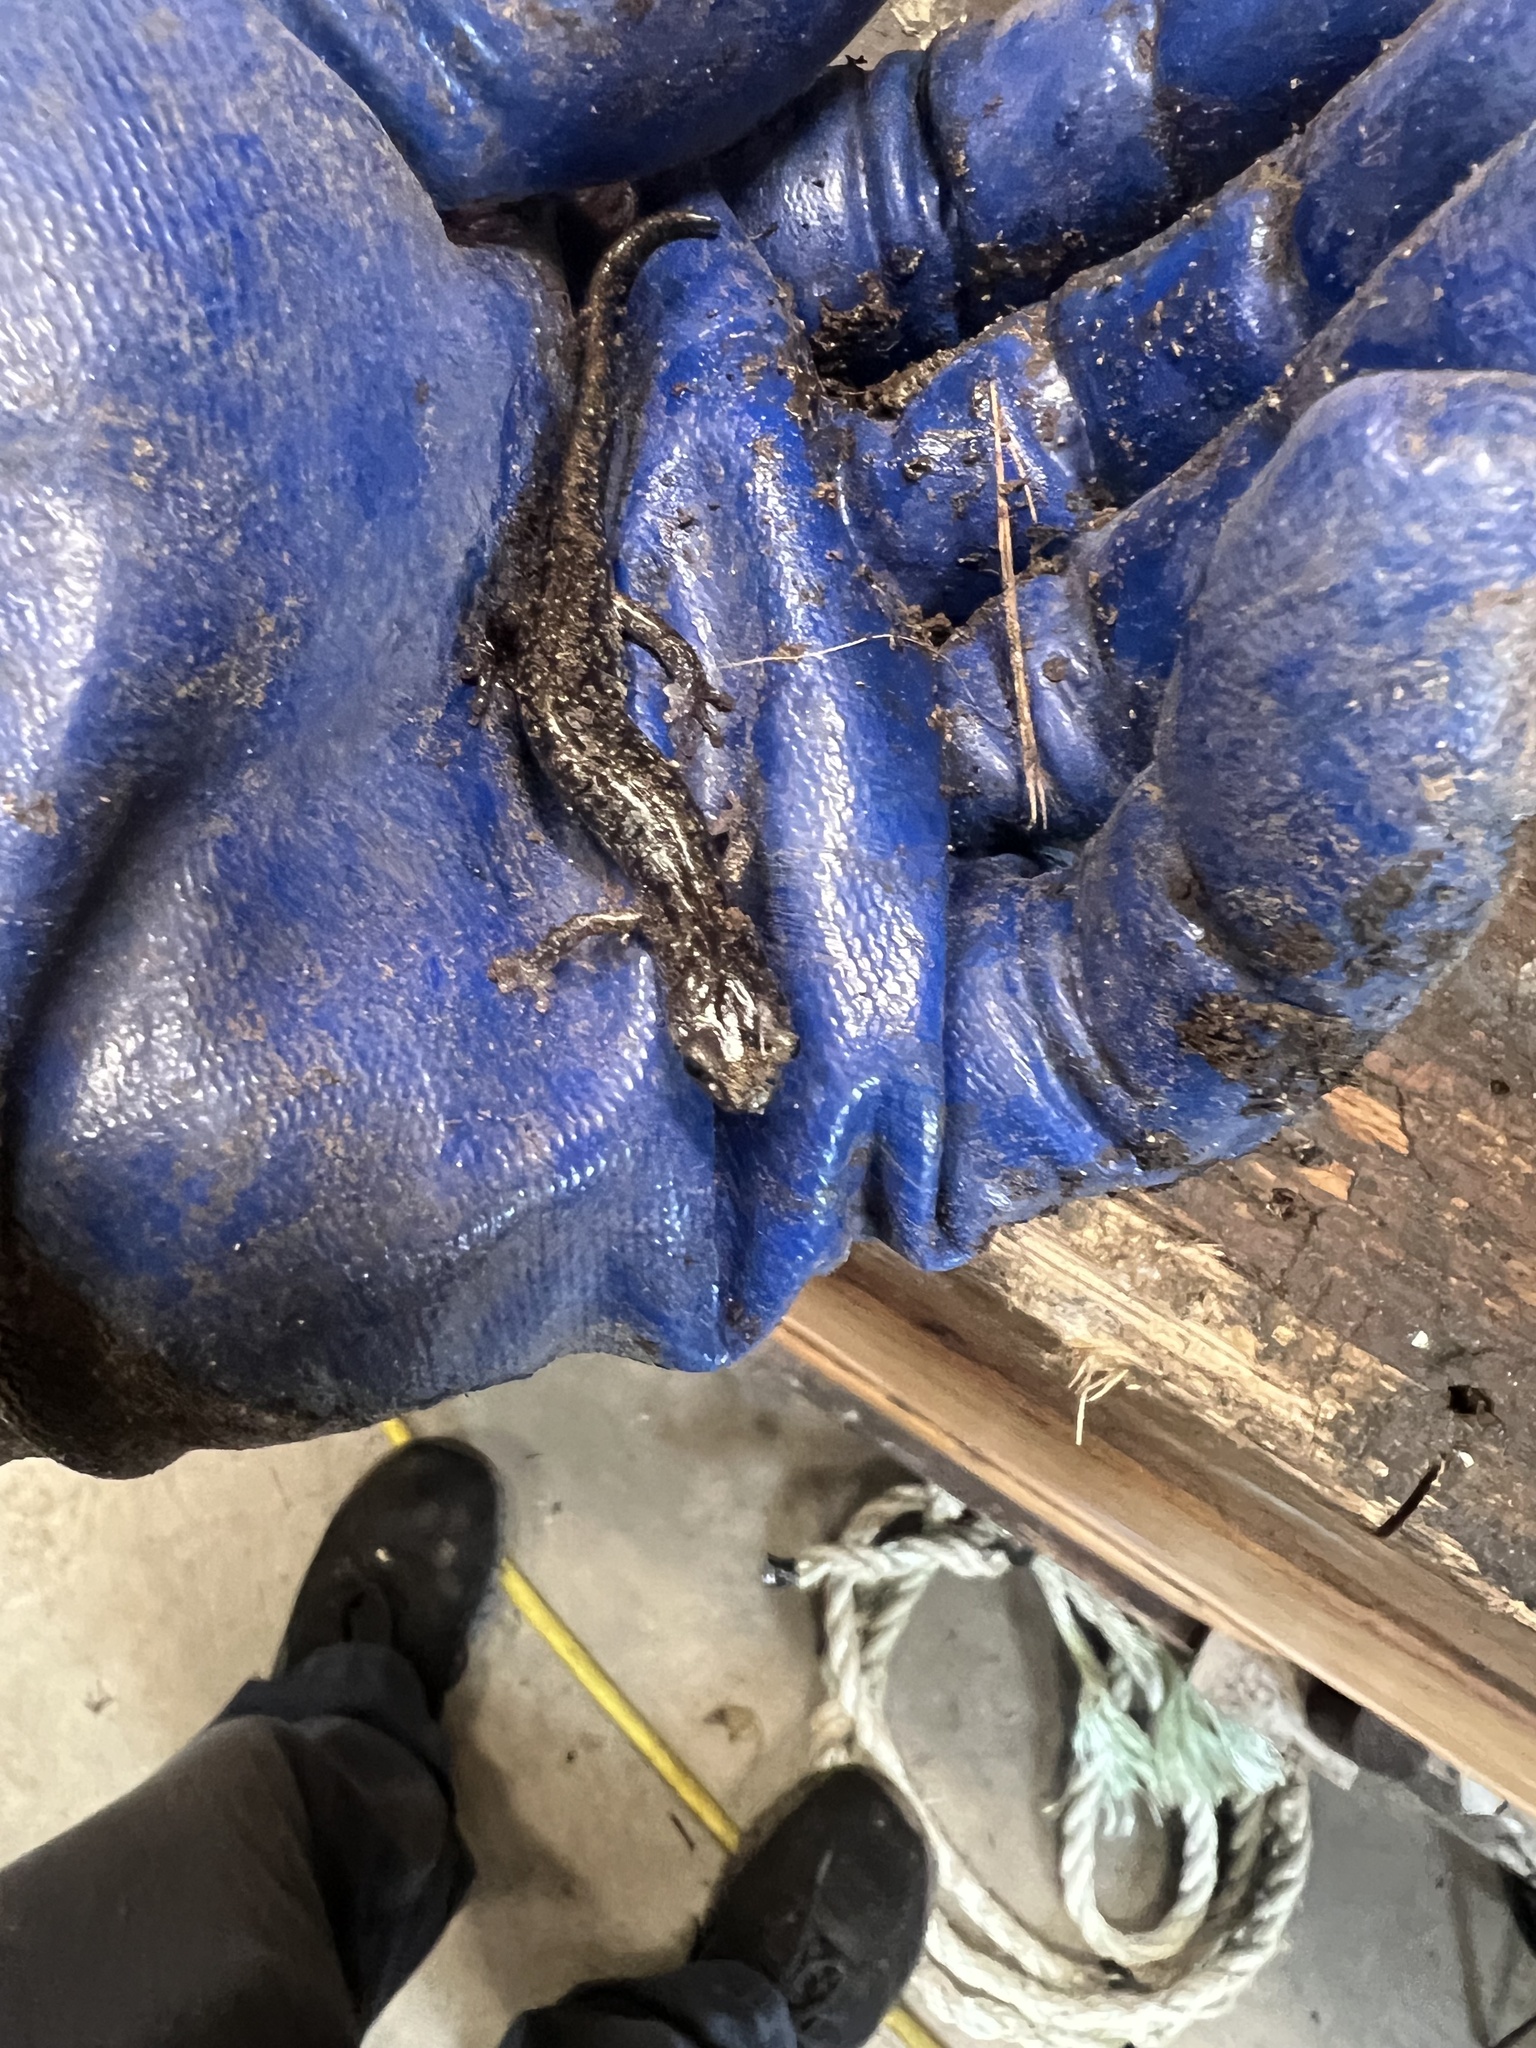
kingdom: Animalia
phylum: Chordata
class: Amphibia
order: Caudata
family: Plethodontidae
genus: Aneides
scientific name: Aneides vagrans
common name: Wandering salamander
